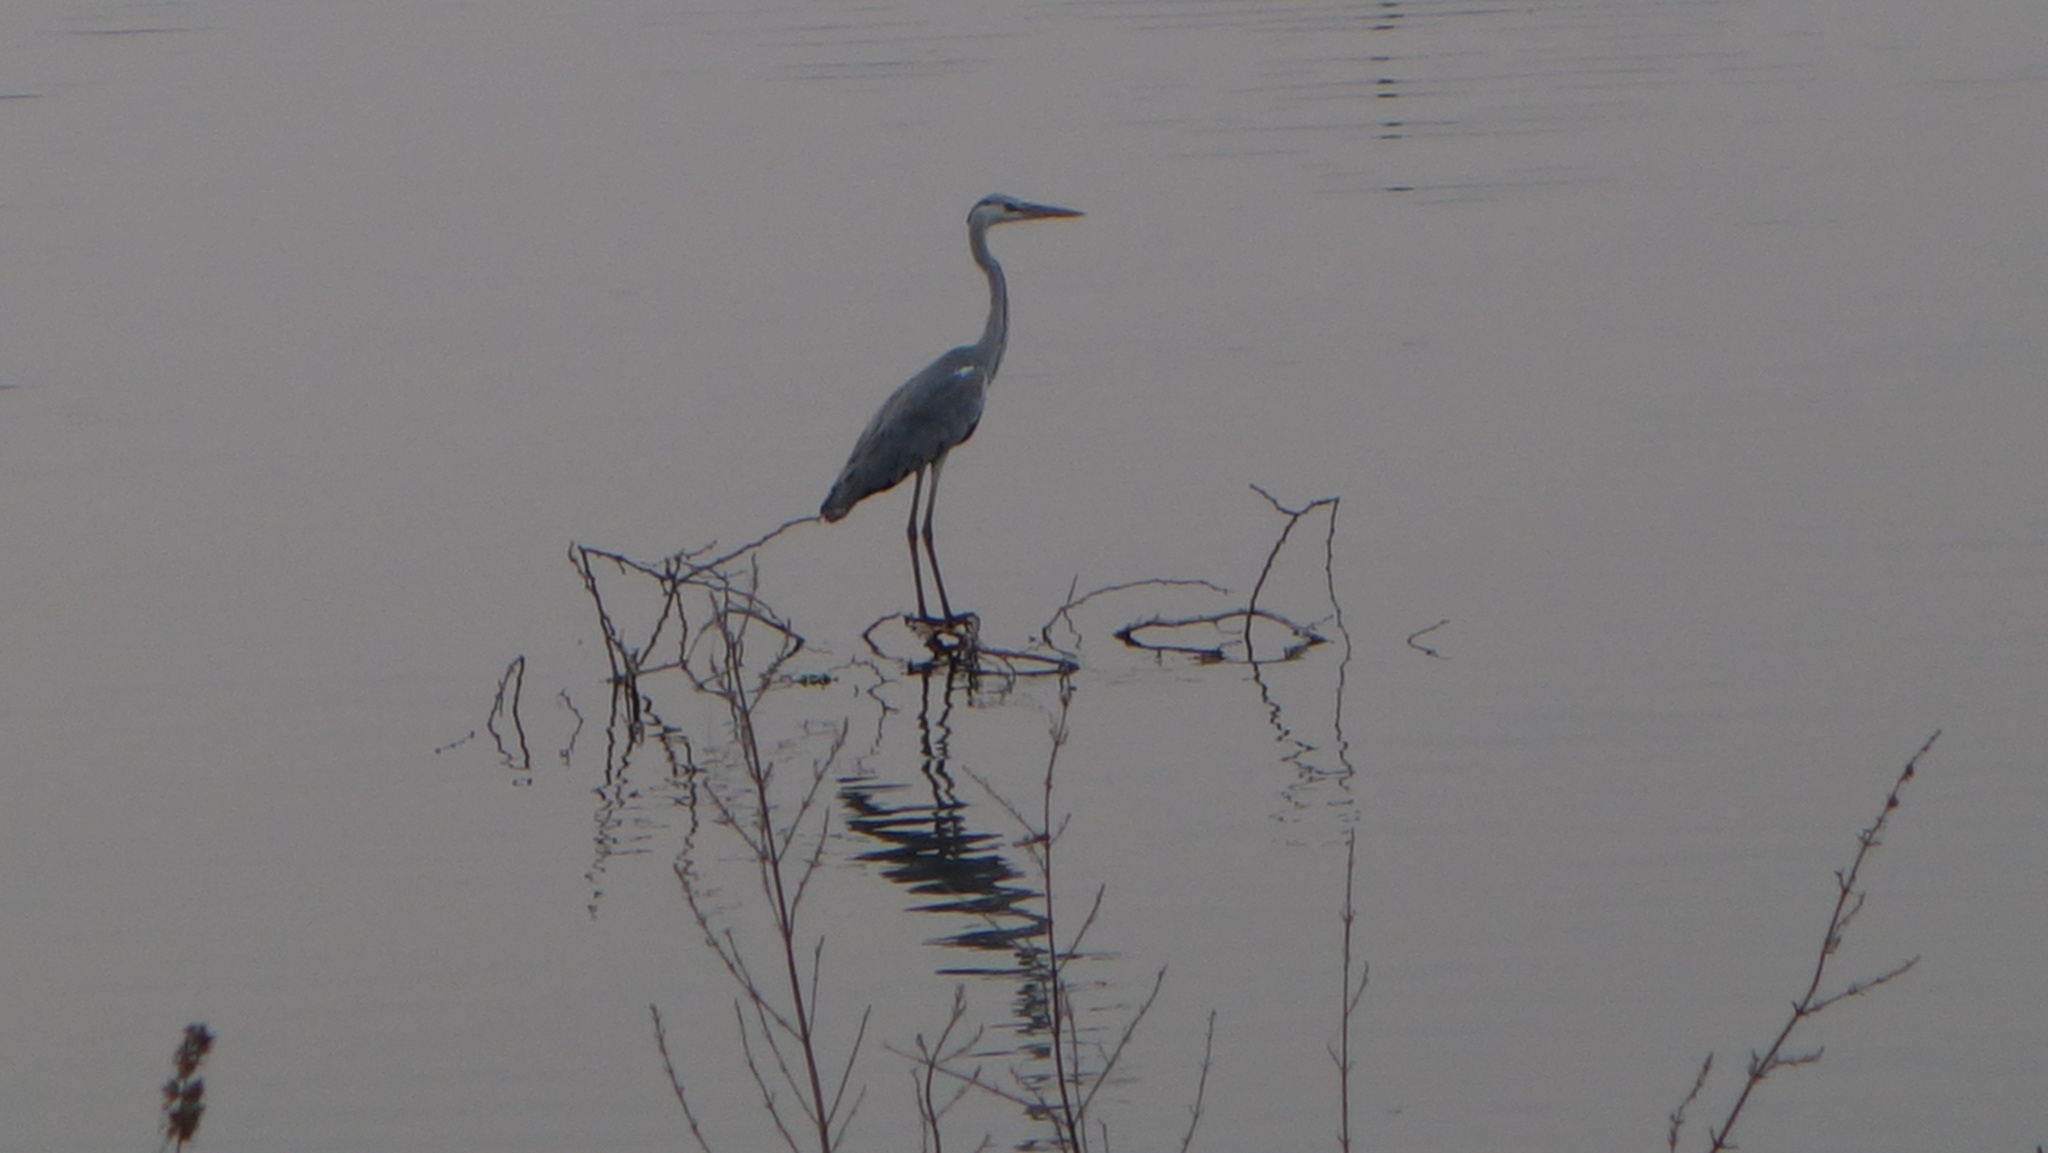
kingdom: Animalia
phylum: Chordata
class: Aves
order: Pelecaniformes
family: Ardeidae
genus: Ardea
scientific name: Ardea cinerea
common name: Grey heron
